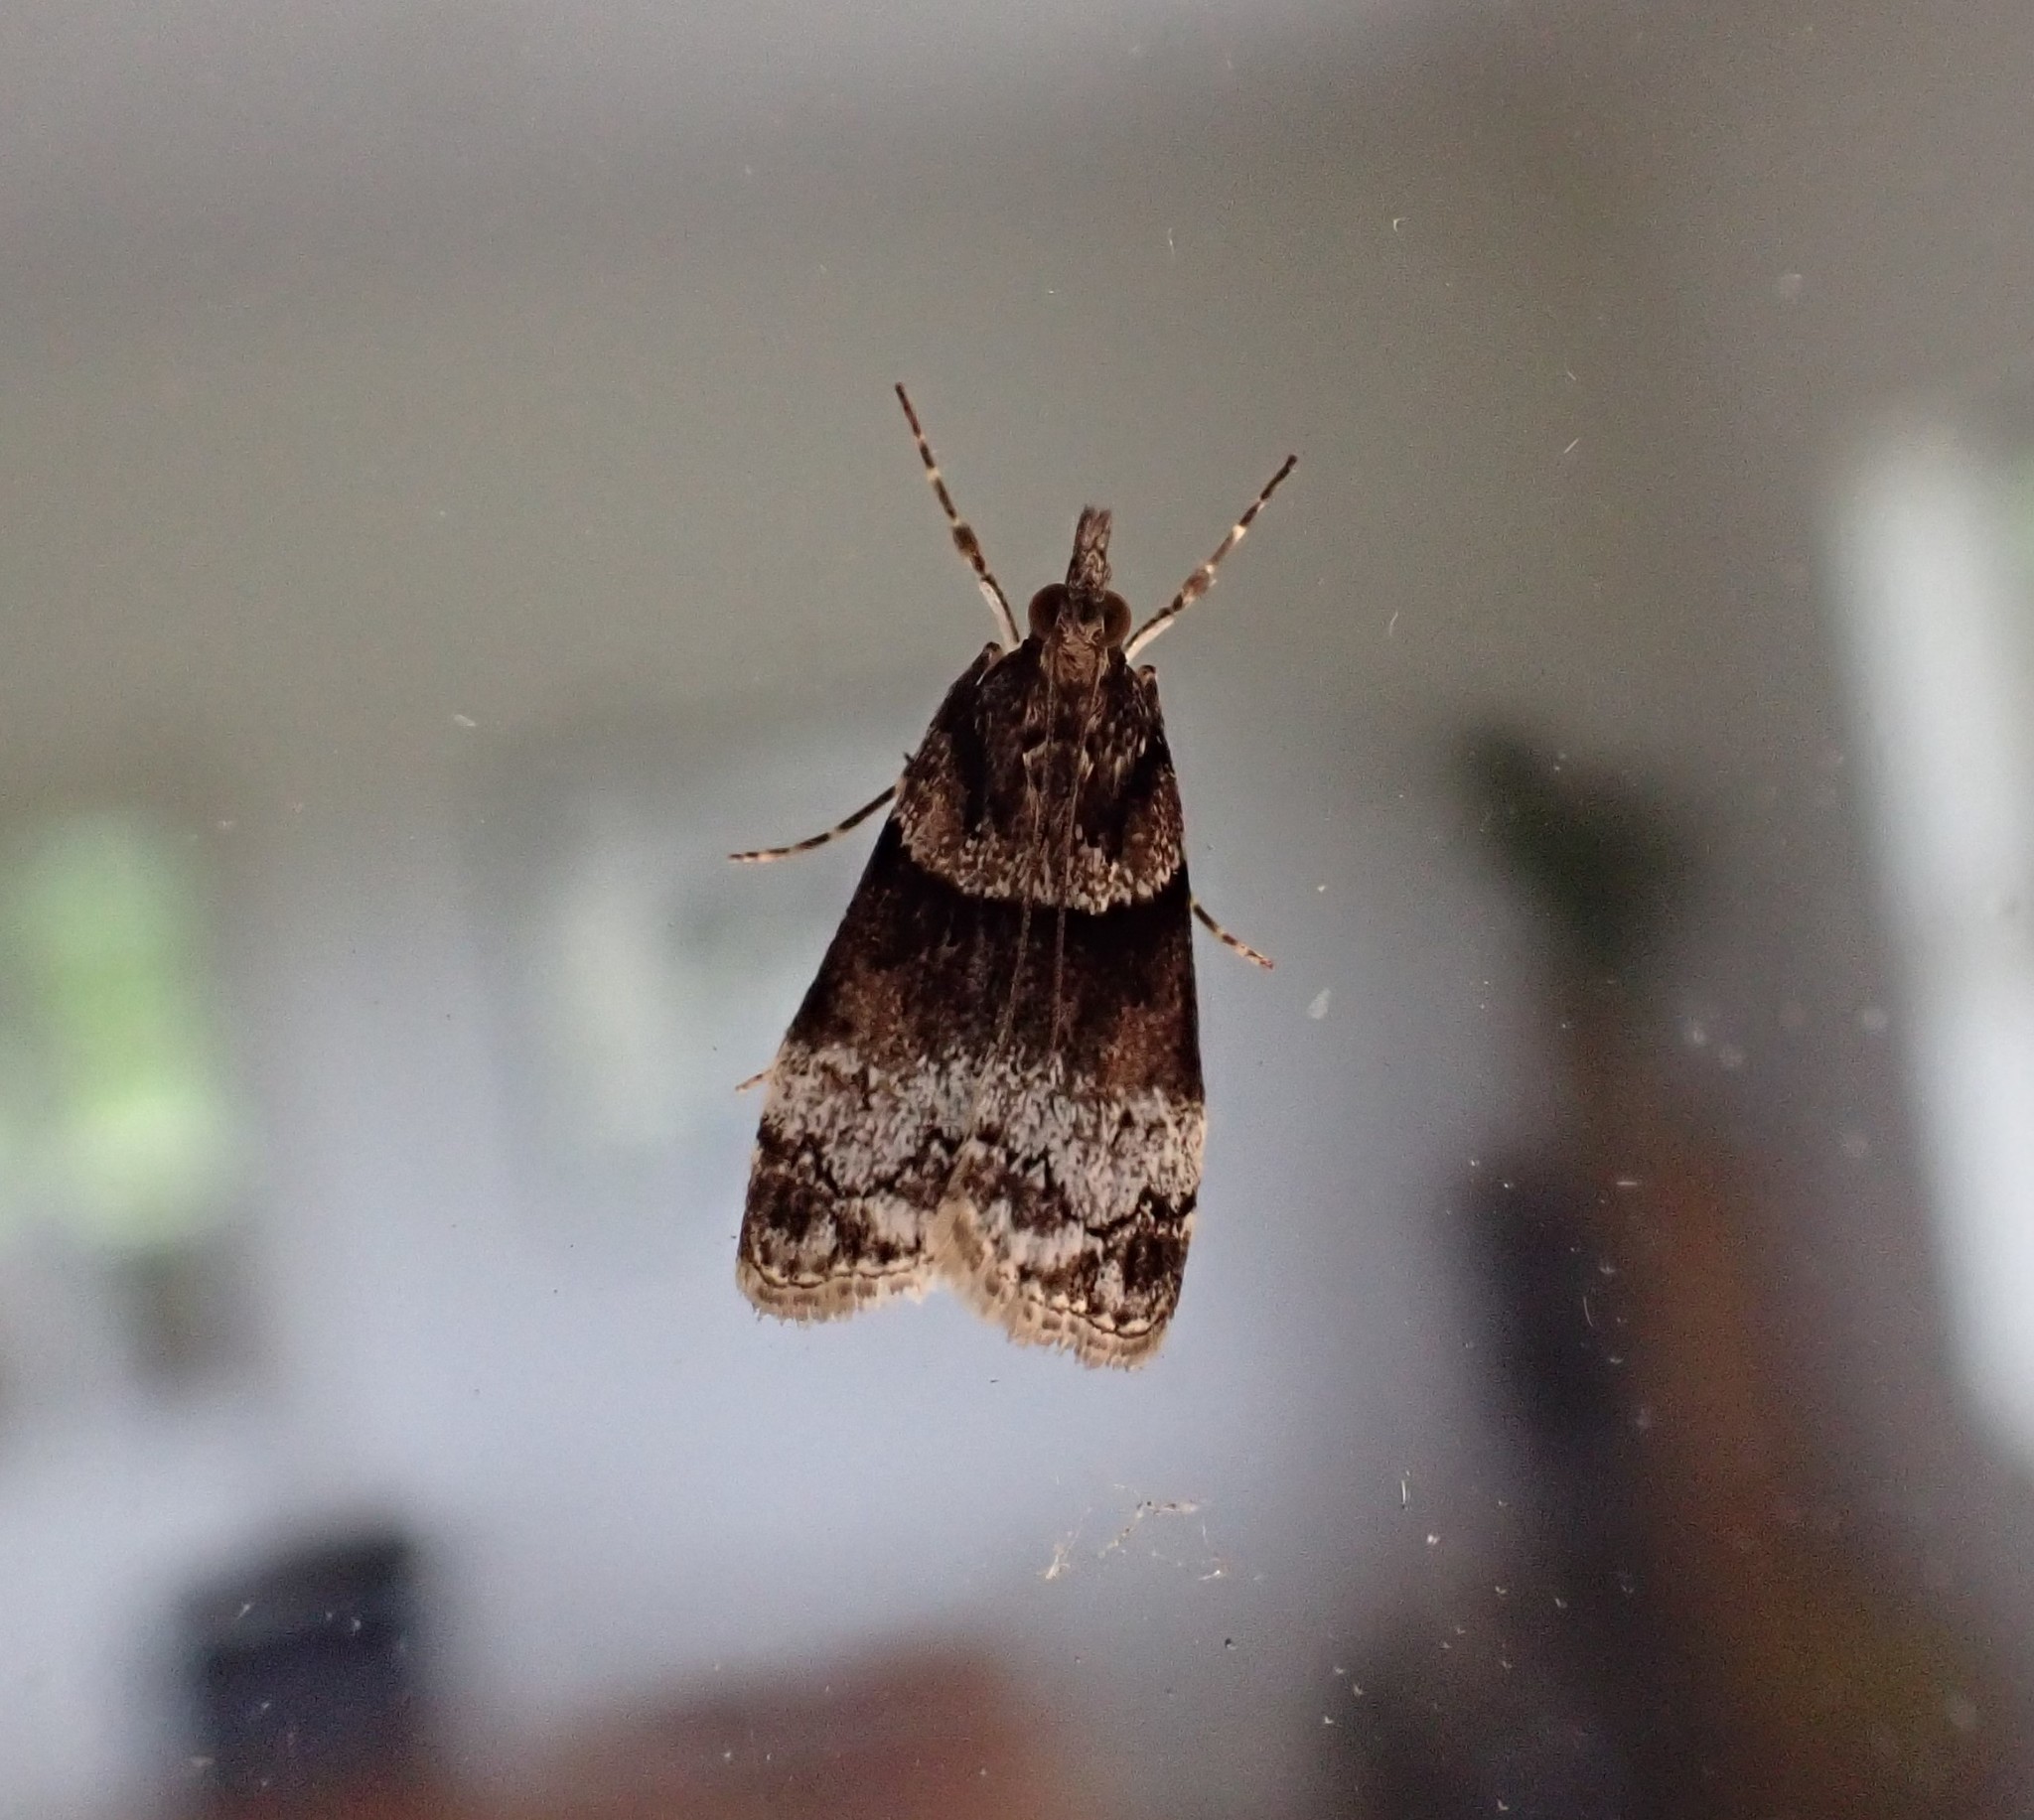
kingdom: Animalia
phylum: Arthropoda
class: Insecta
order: Lepidoptera
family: Crambidae
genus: Eudonia
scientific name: Eudonia colpota
